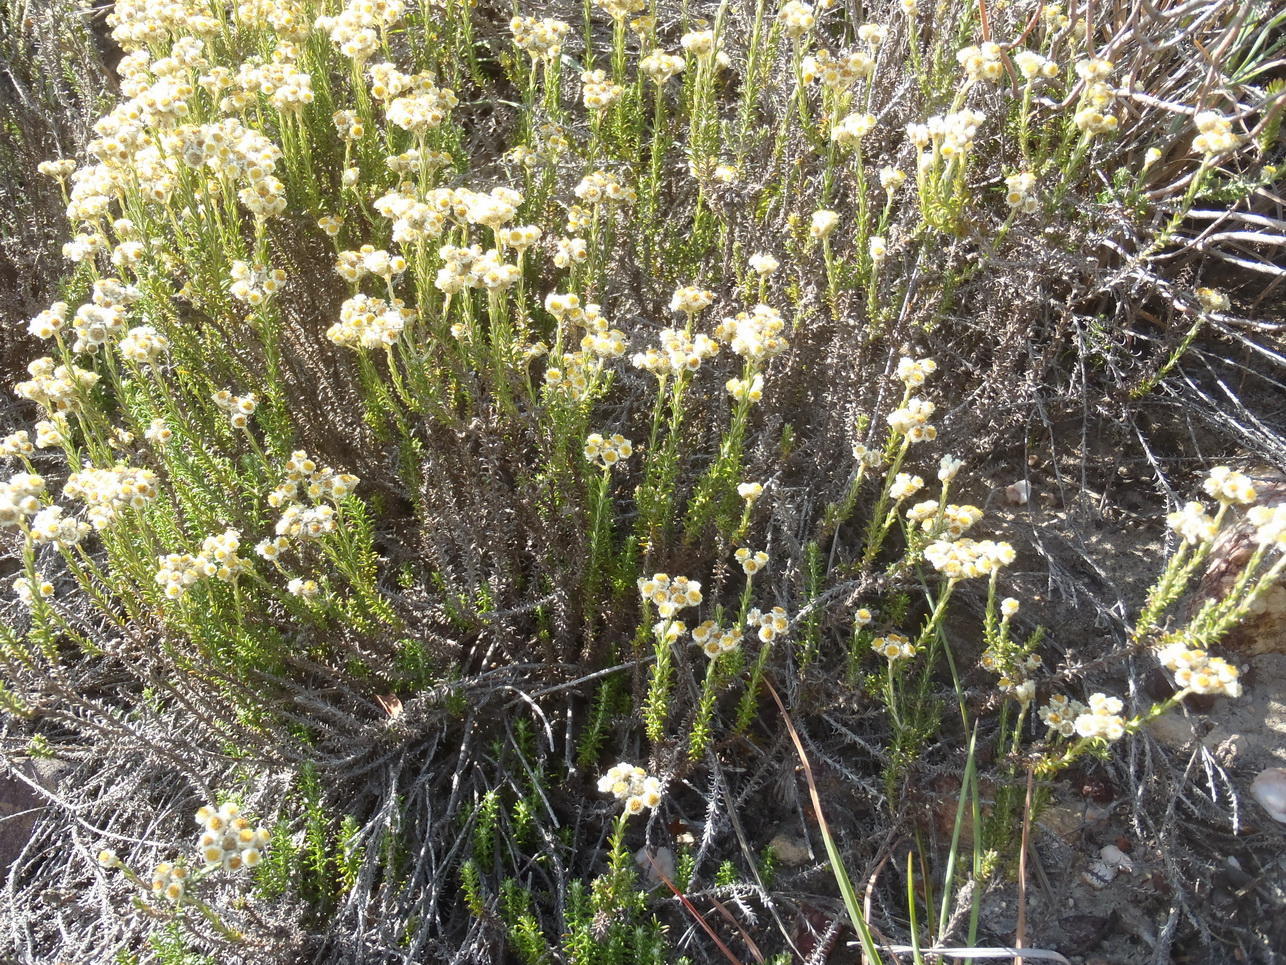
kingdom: Plantae
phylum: Tracheophyta
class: Magnoliopsida
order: Asterales
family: Asteraceae
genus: Helichrysum
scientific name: Helichrysum teretifolium
